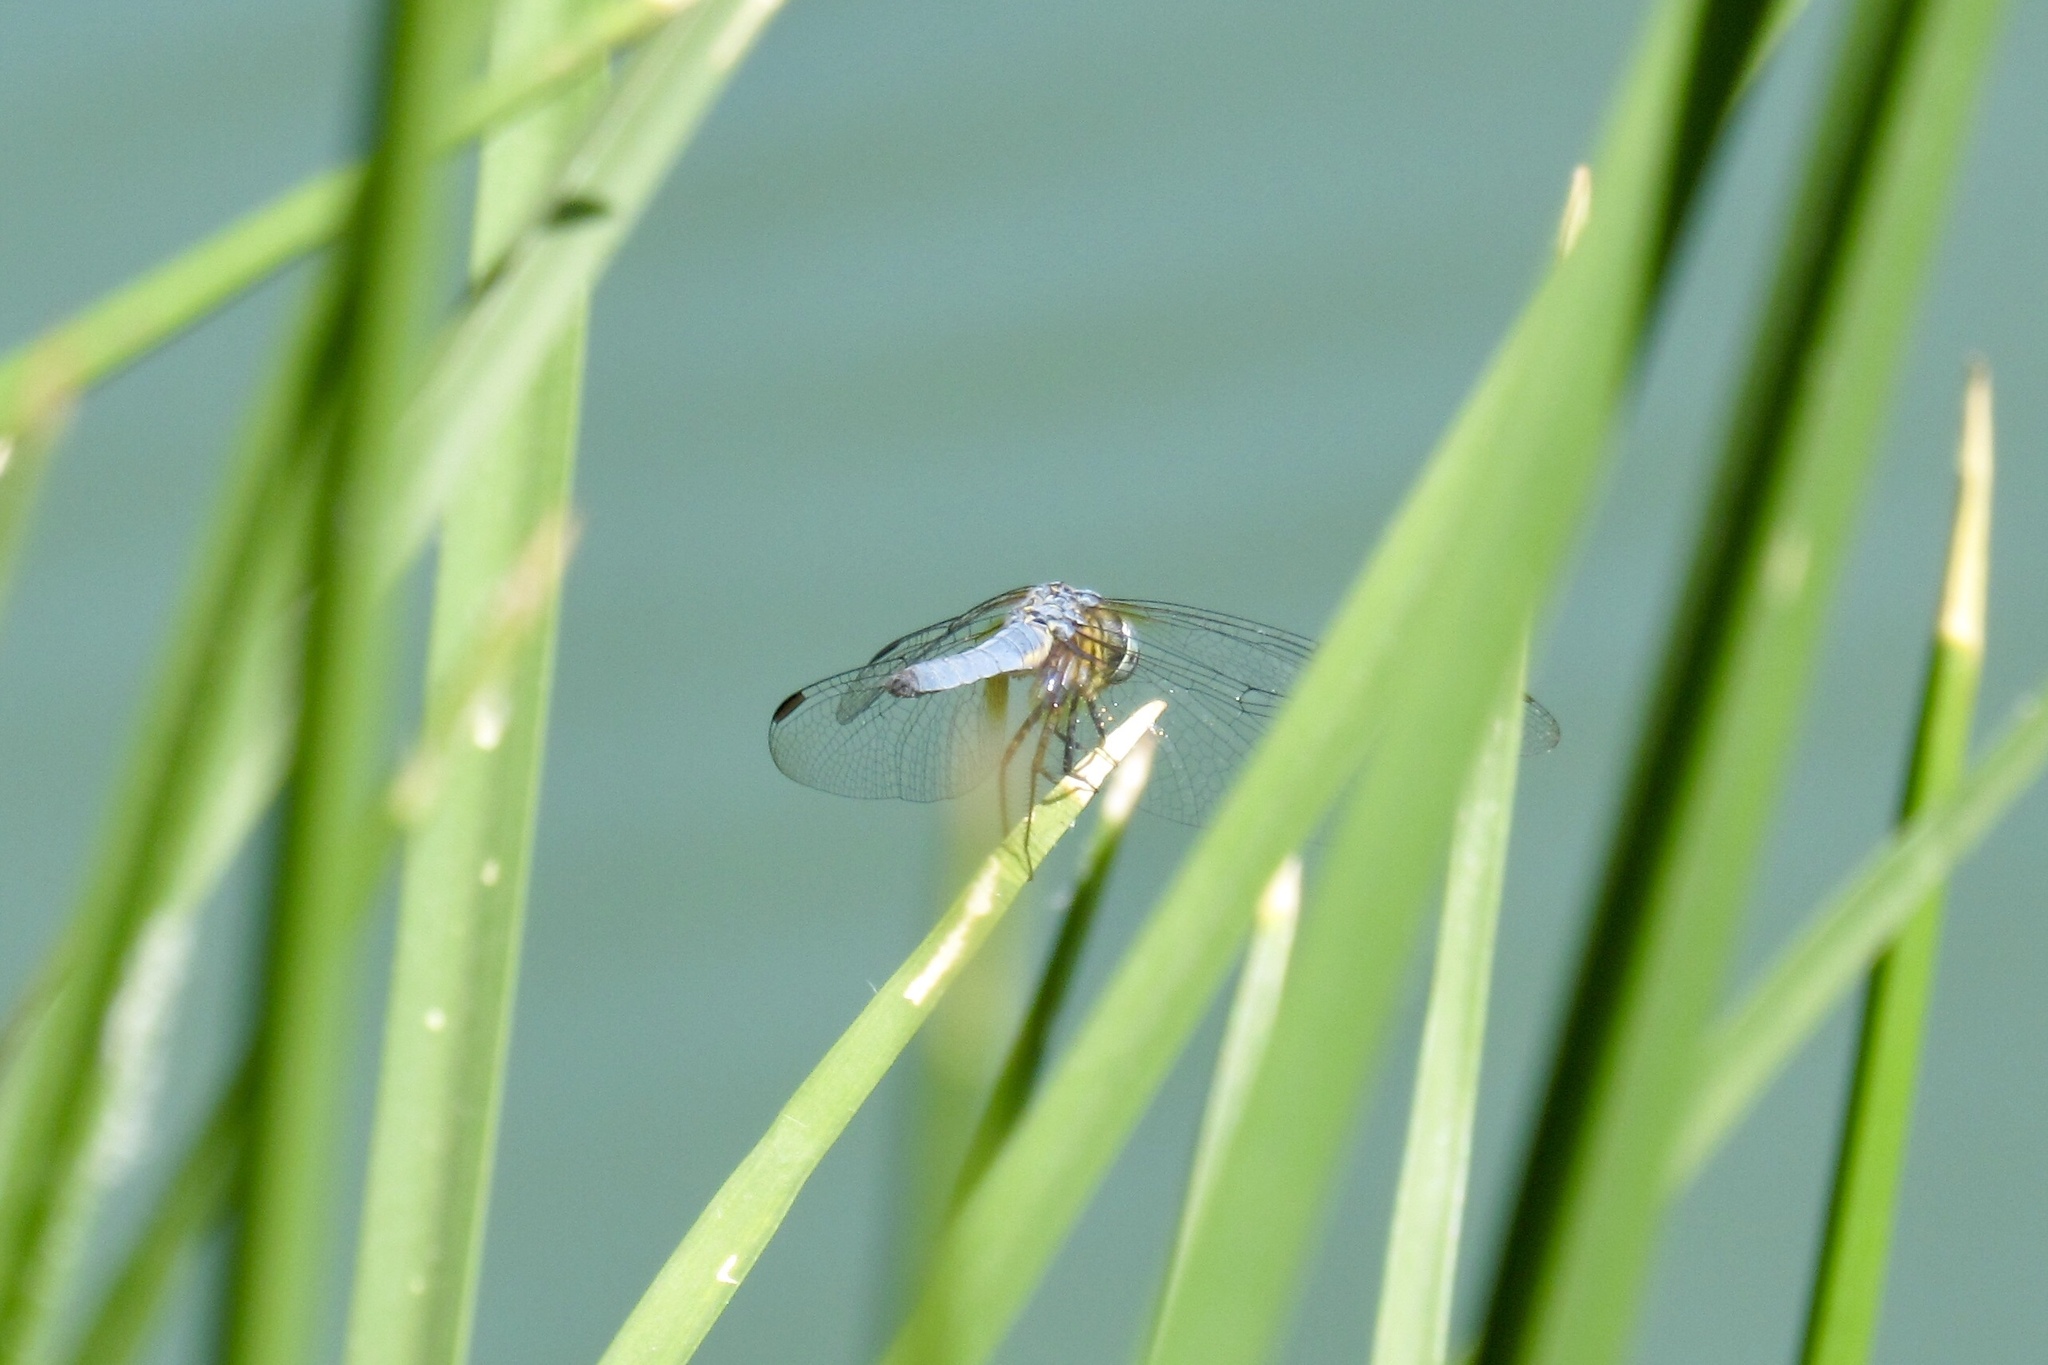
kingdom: Animalia
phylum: Arthropoda
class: Insecta
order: Odonata
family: Libellulidae
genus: Pachydiplax
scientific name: Pachydiplax longipennis
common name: Blue dasher
